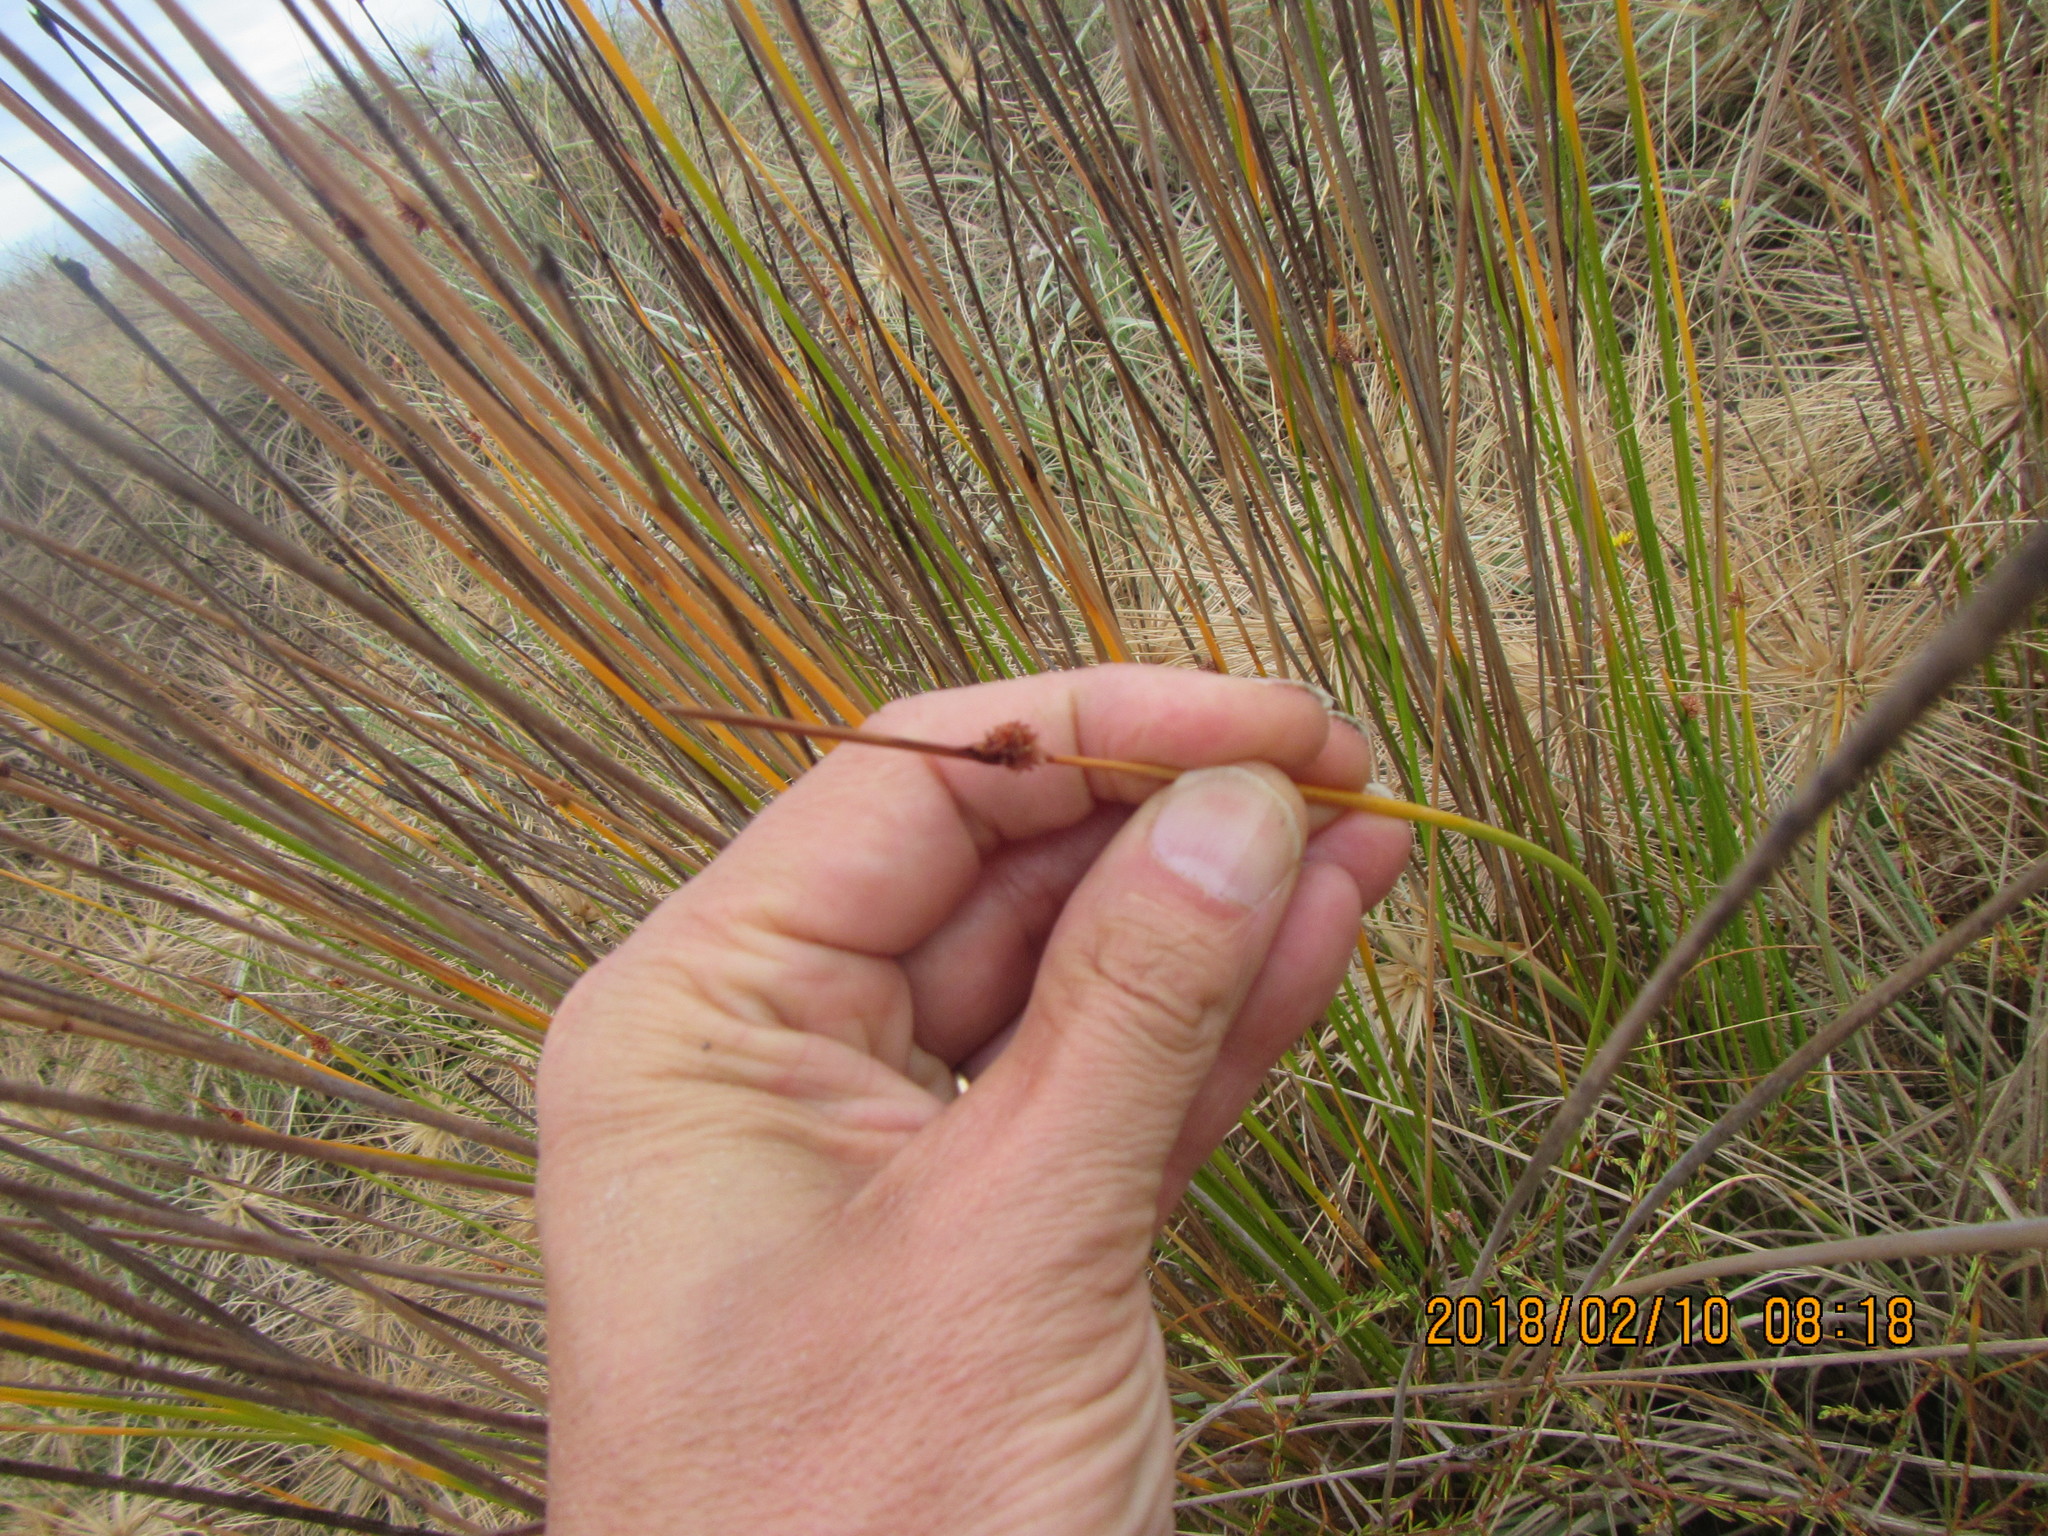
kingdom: Plantae
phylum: Tracheophyta
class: Liliopsida
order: Poales
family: Cyperaceae
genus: Ficinia
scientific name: Ficinia nodosa
